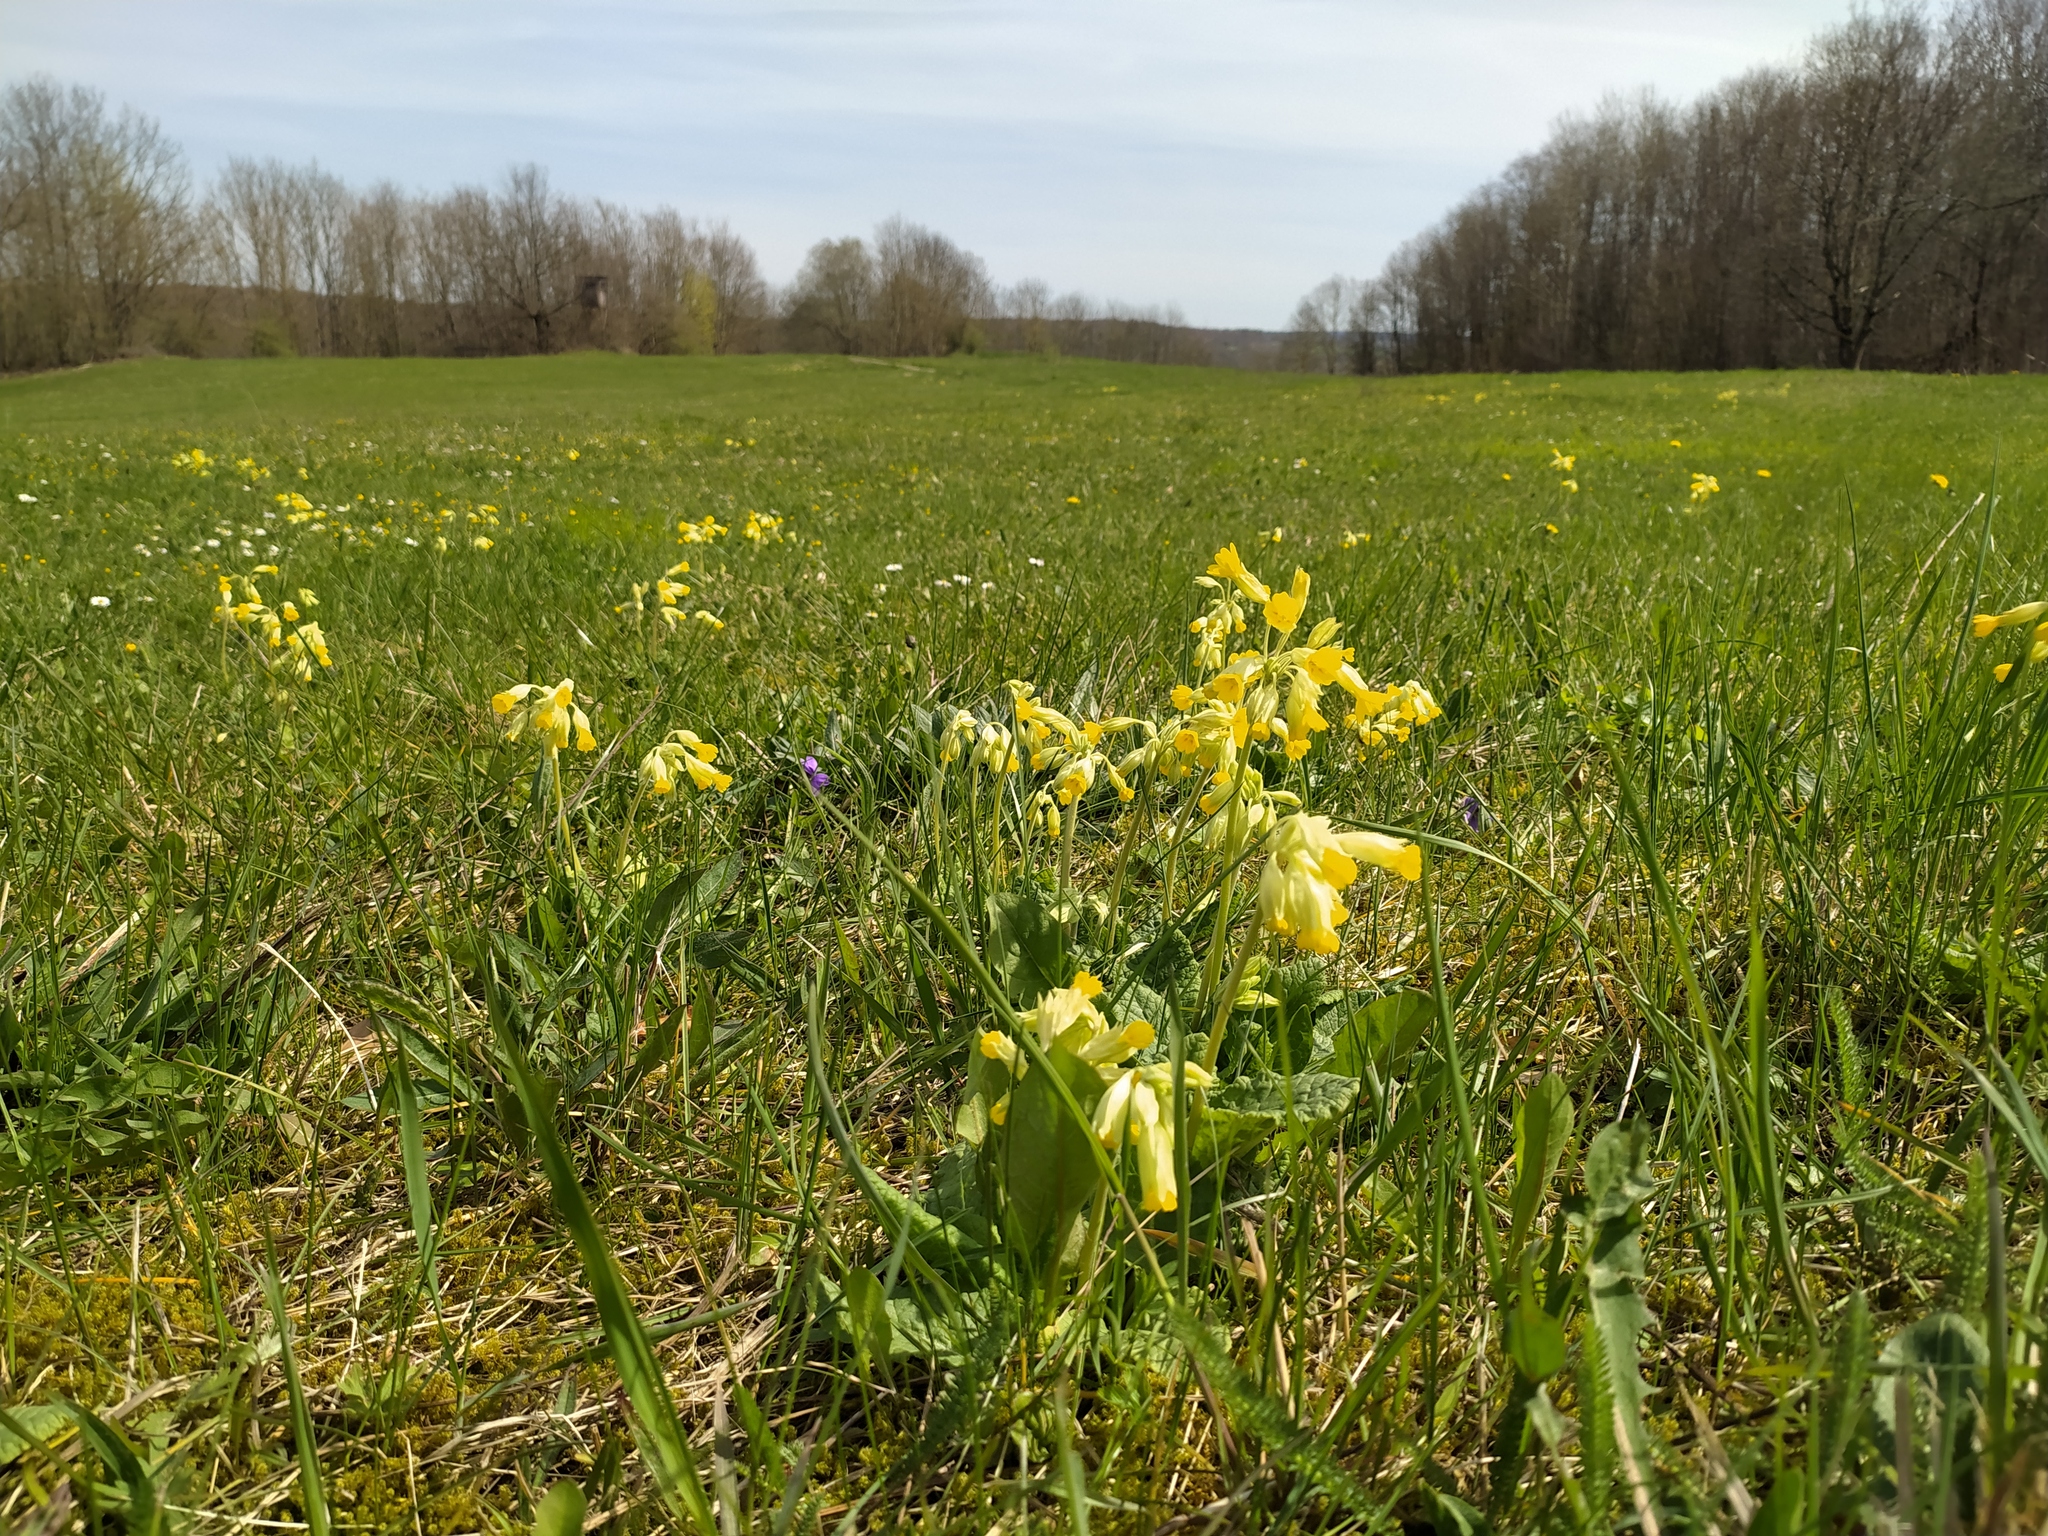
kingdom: Plantae
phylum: Tracheophyta
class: Magnoliopsida
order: Ericales
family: Primulaceae
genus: Primula
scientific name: Primula veris
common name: Cowslip
